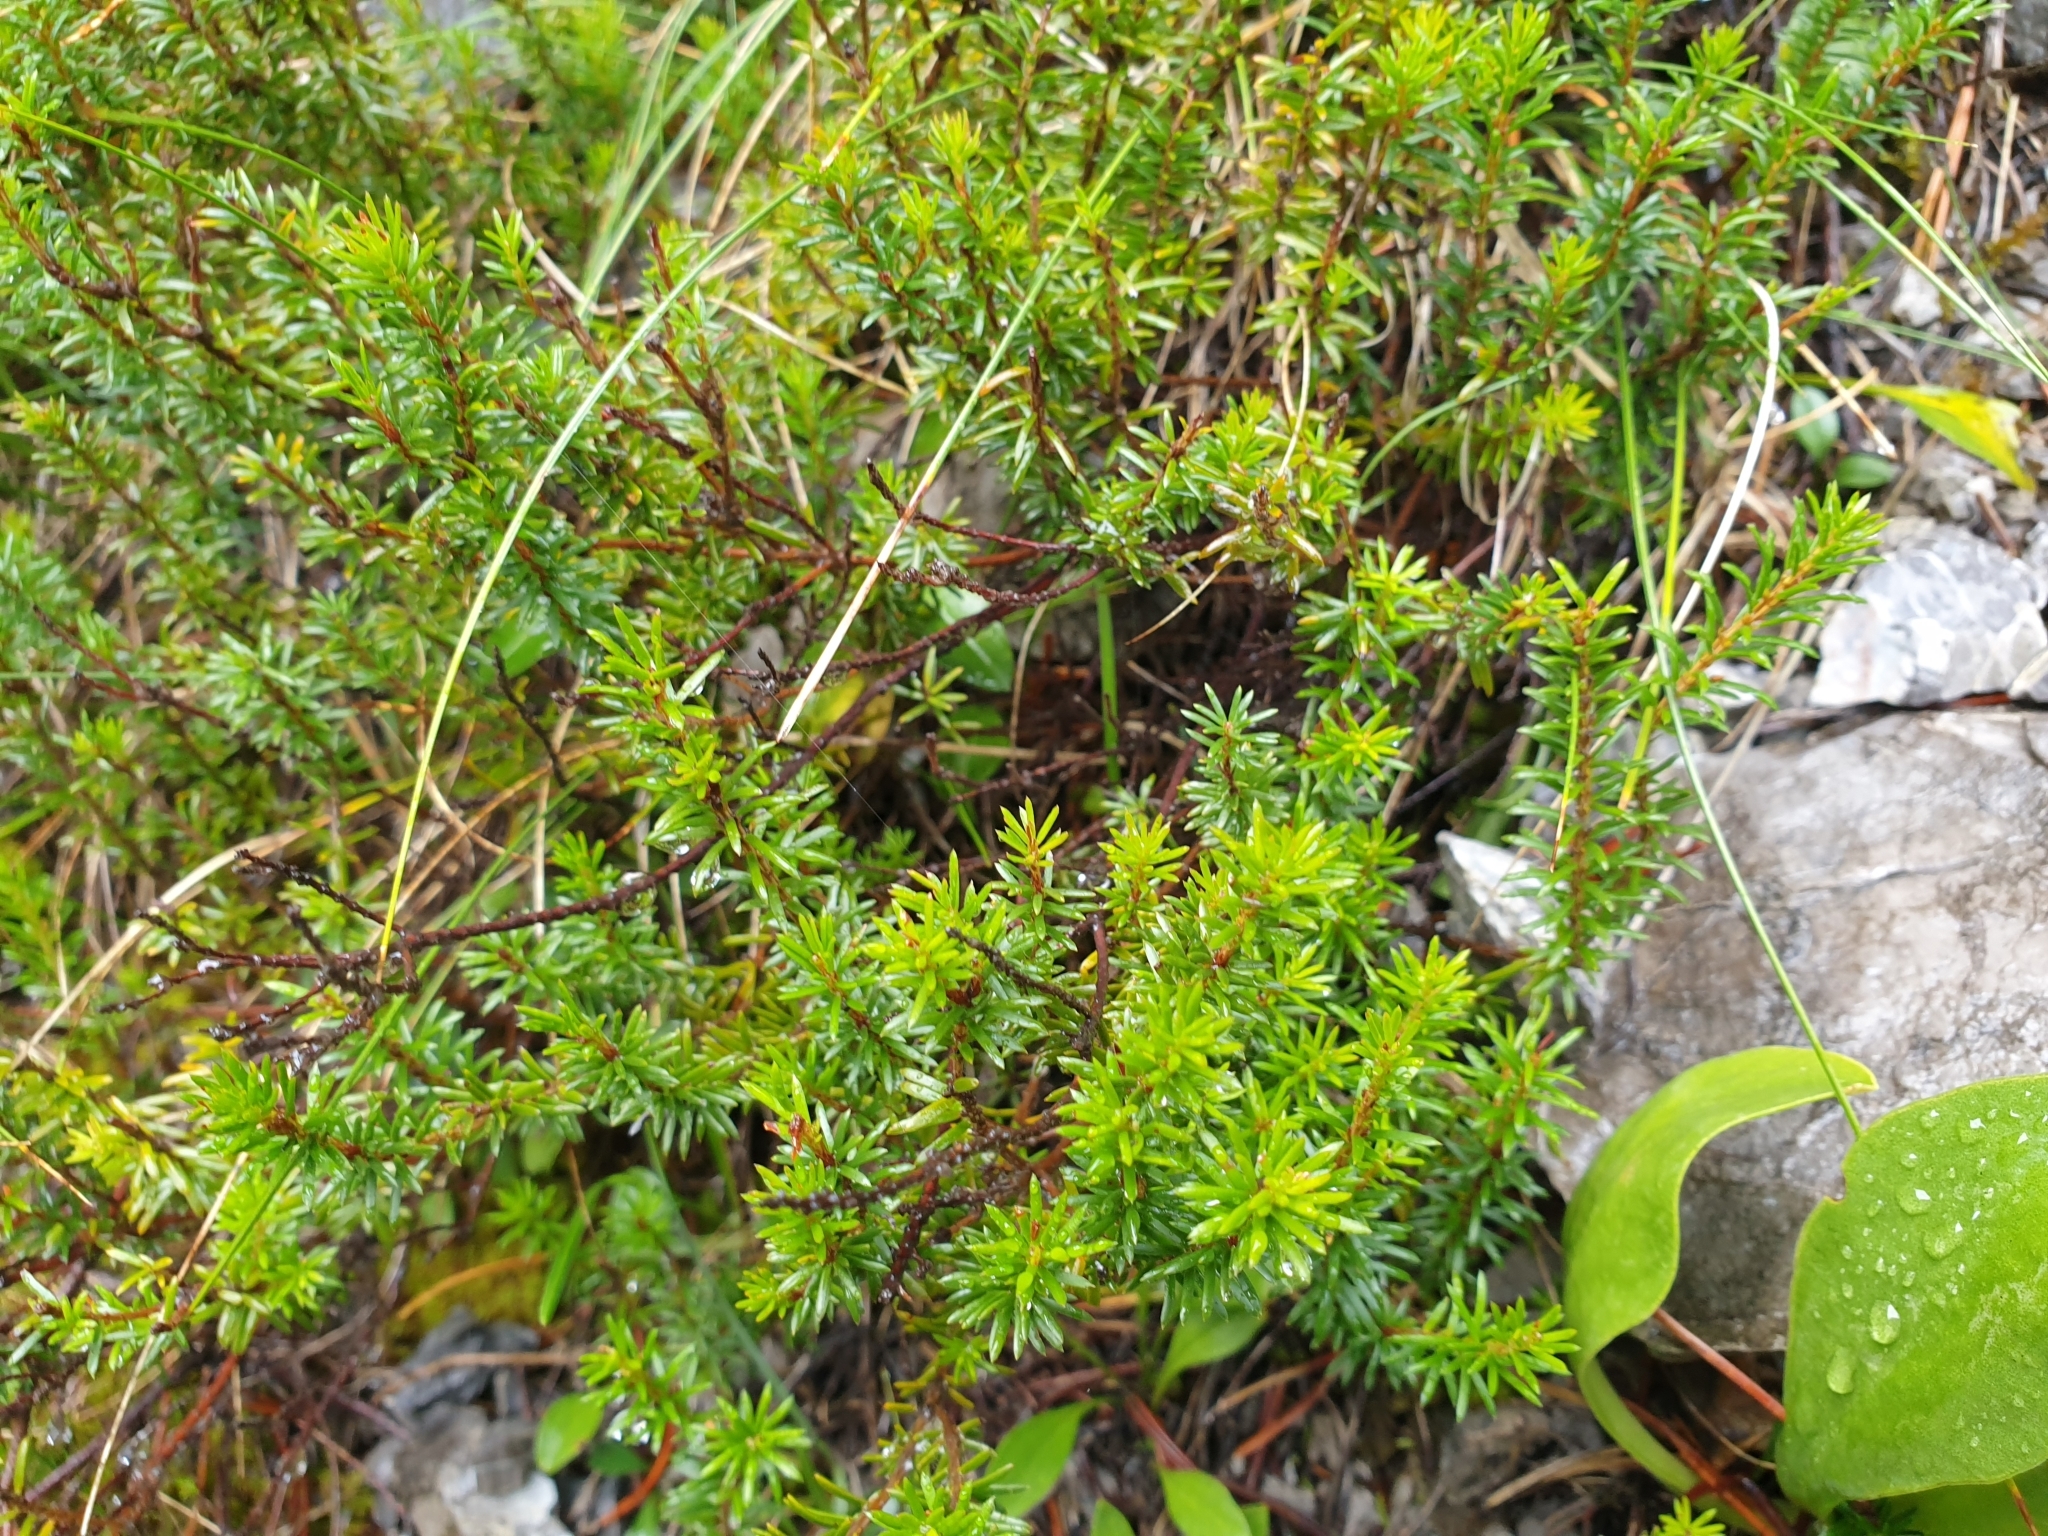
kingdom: Plantae
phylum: Tracheophyta
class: Magnoliopsida
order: Ericales
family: Ericaceae
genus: Erica
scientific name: Erica carnea
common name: Winter heath
